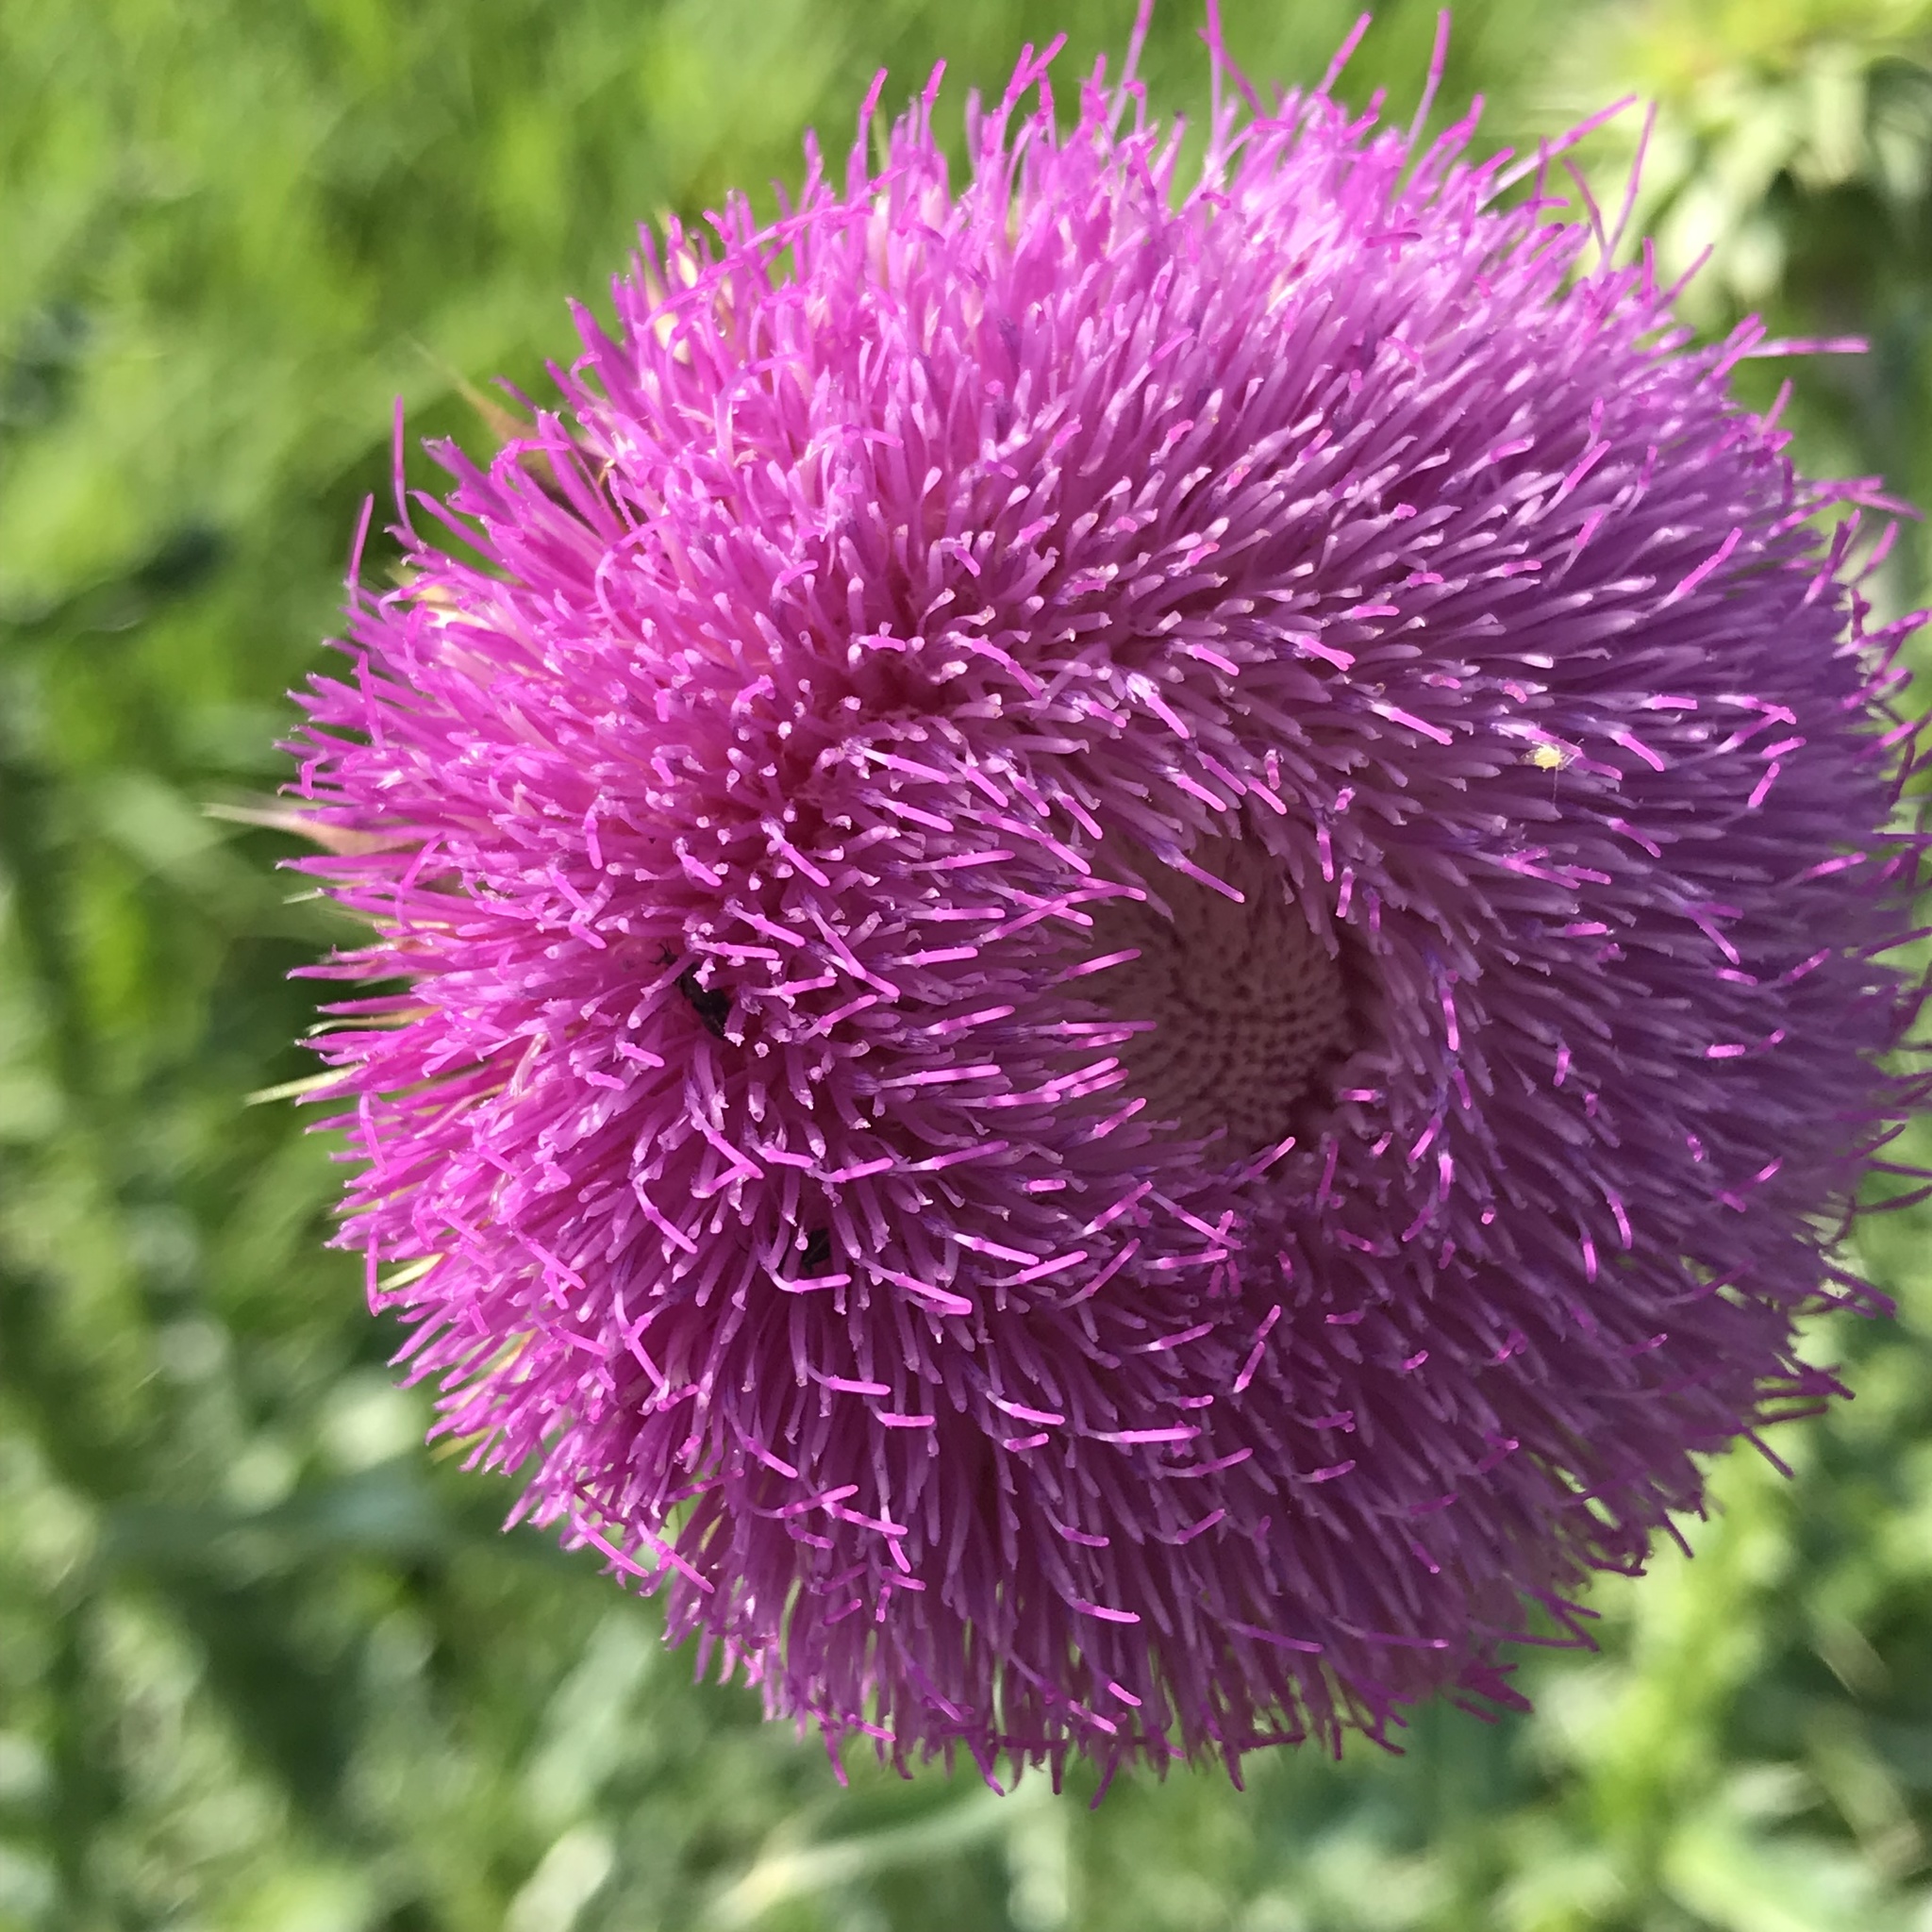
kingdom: Plantae
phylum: Tracheophyta
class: Magnoliopsida
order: Asterales
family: Asteraceae
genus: Carduus
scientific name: Carduus nutans
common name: Musk thistle
